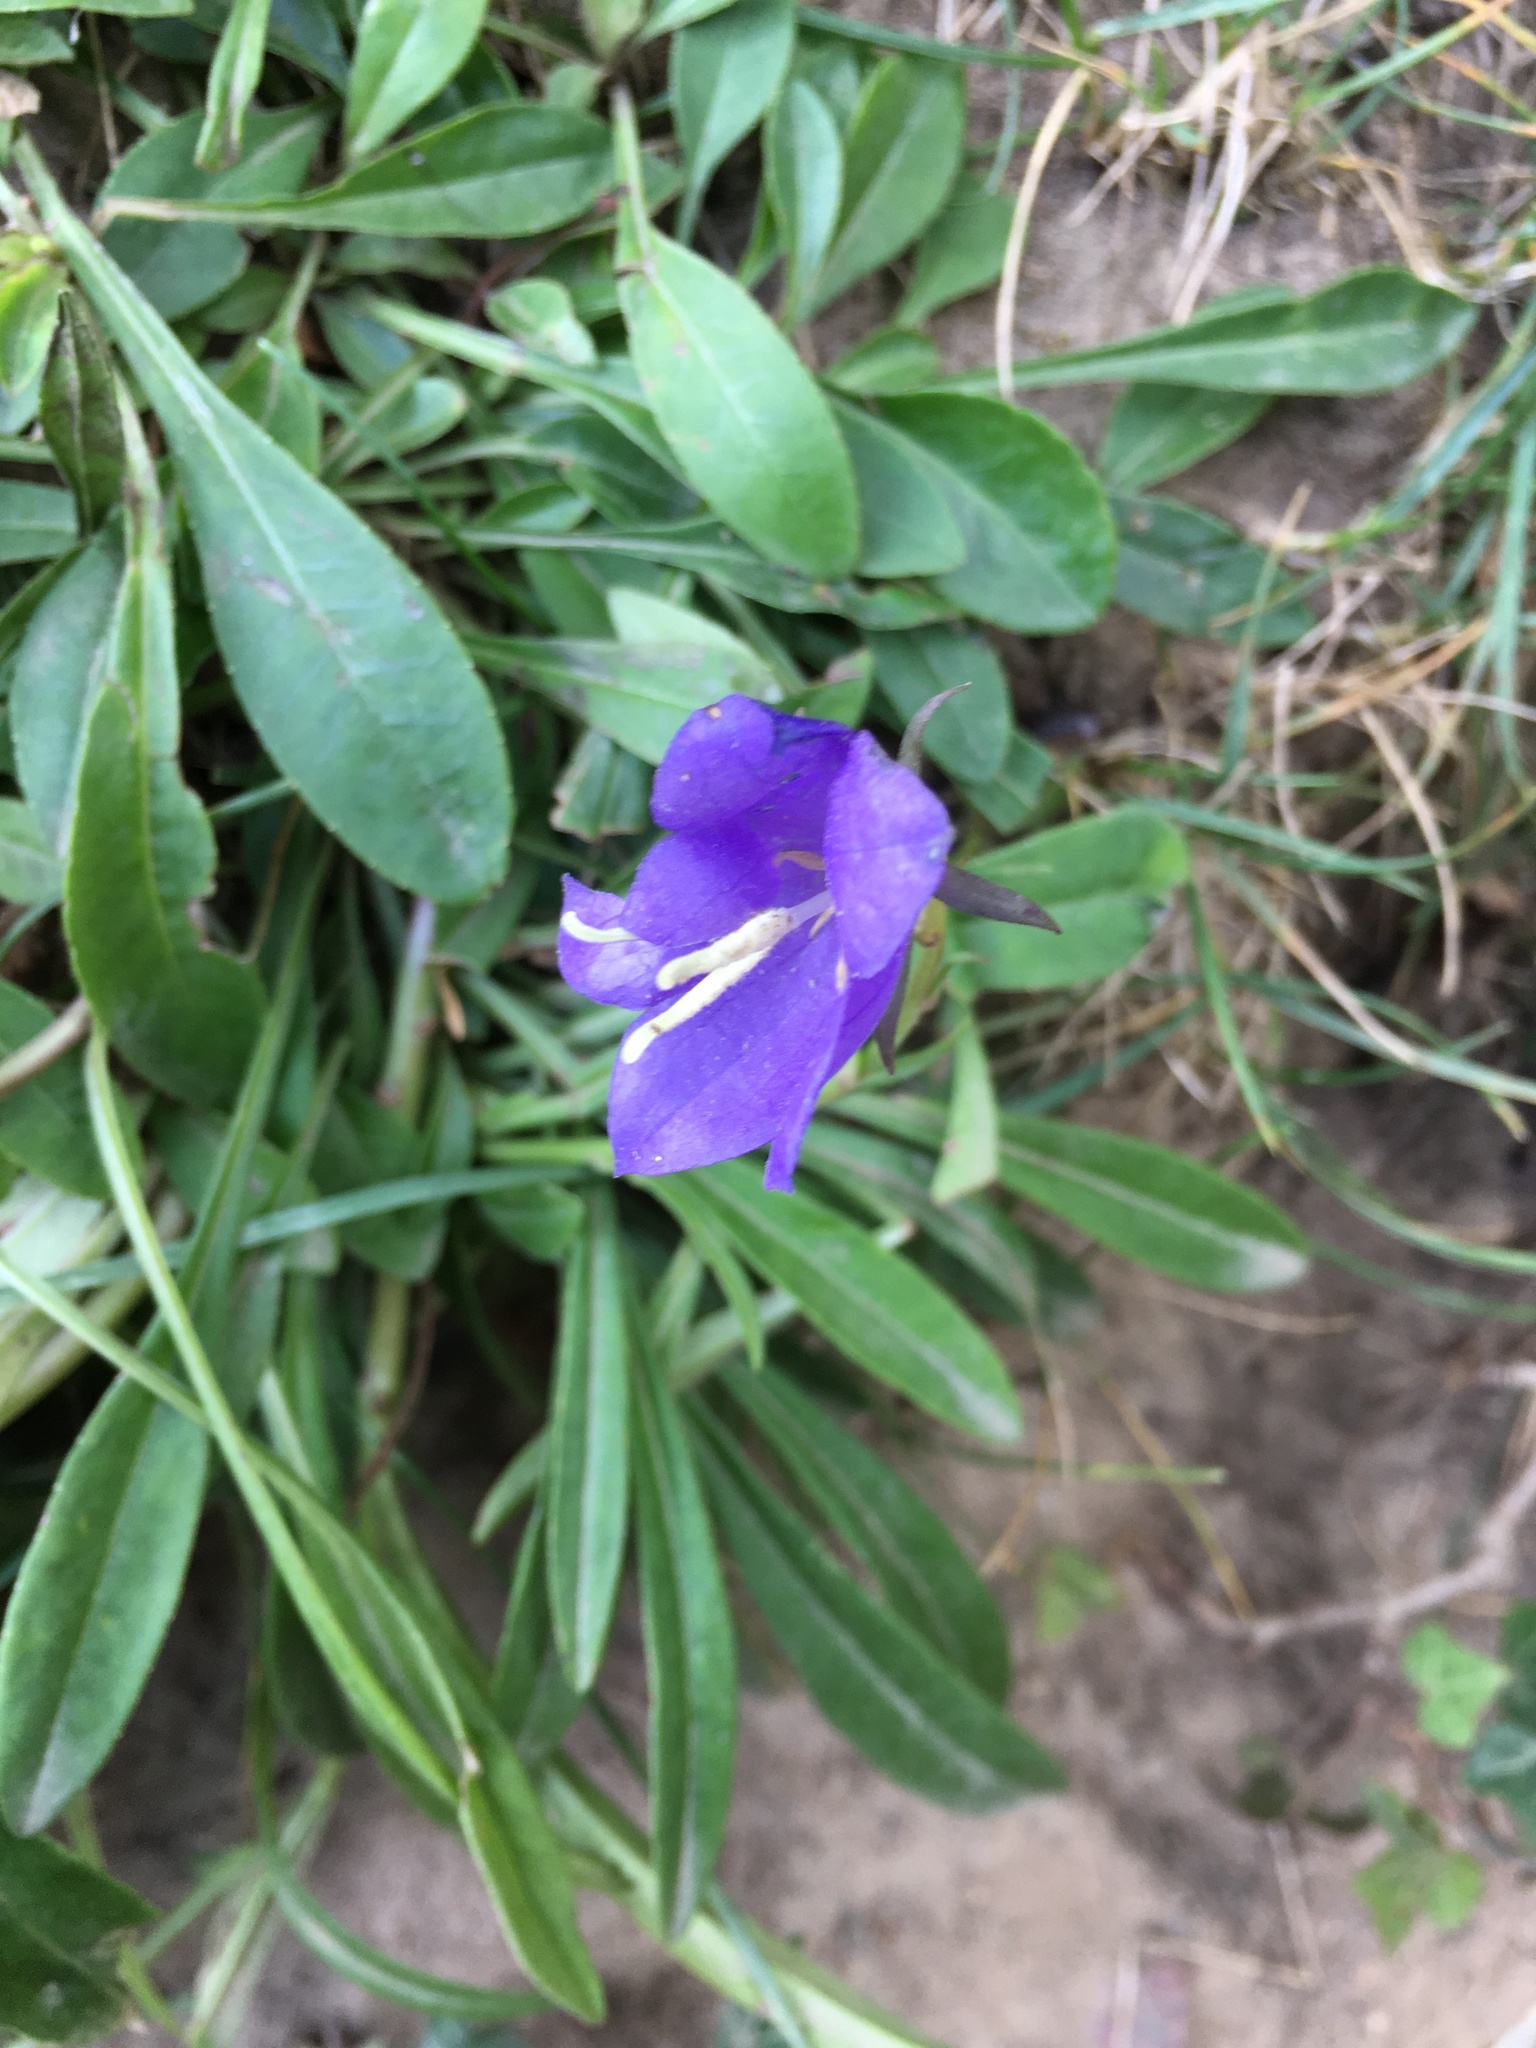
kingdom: Plantae
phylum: Tracheophyta
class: Magnoliopsida
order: Asterales
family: Campanulaceae
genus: Campanula
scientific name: Campanula persicifolia
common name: Peach-leaved bellflower
